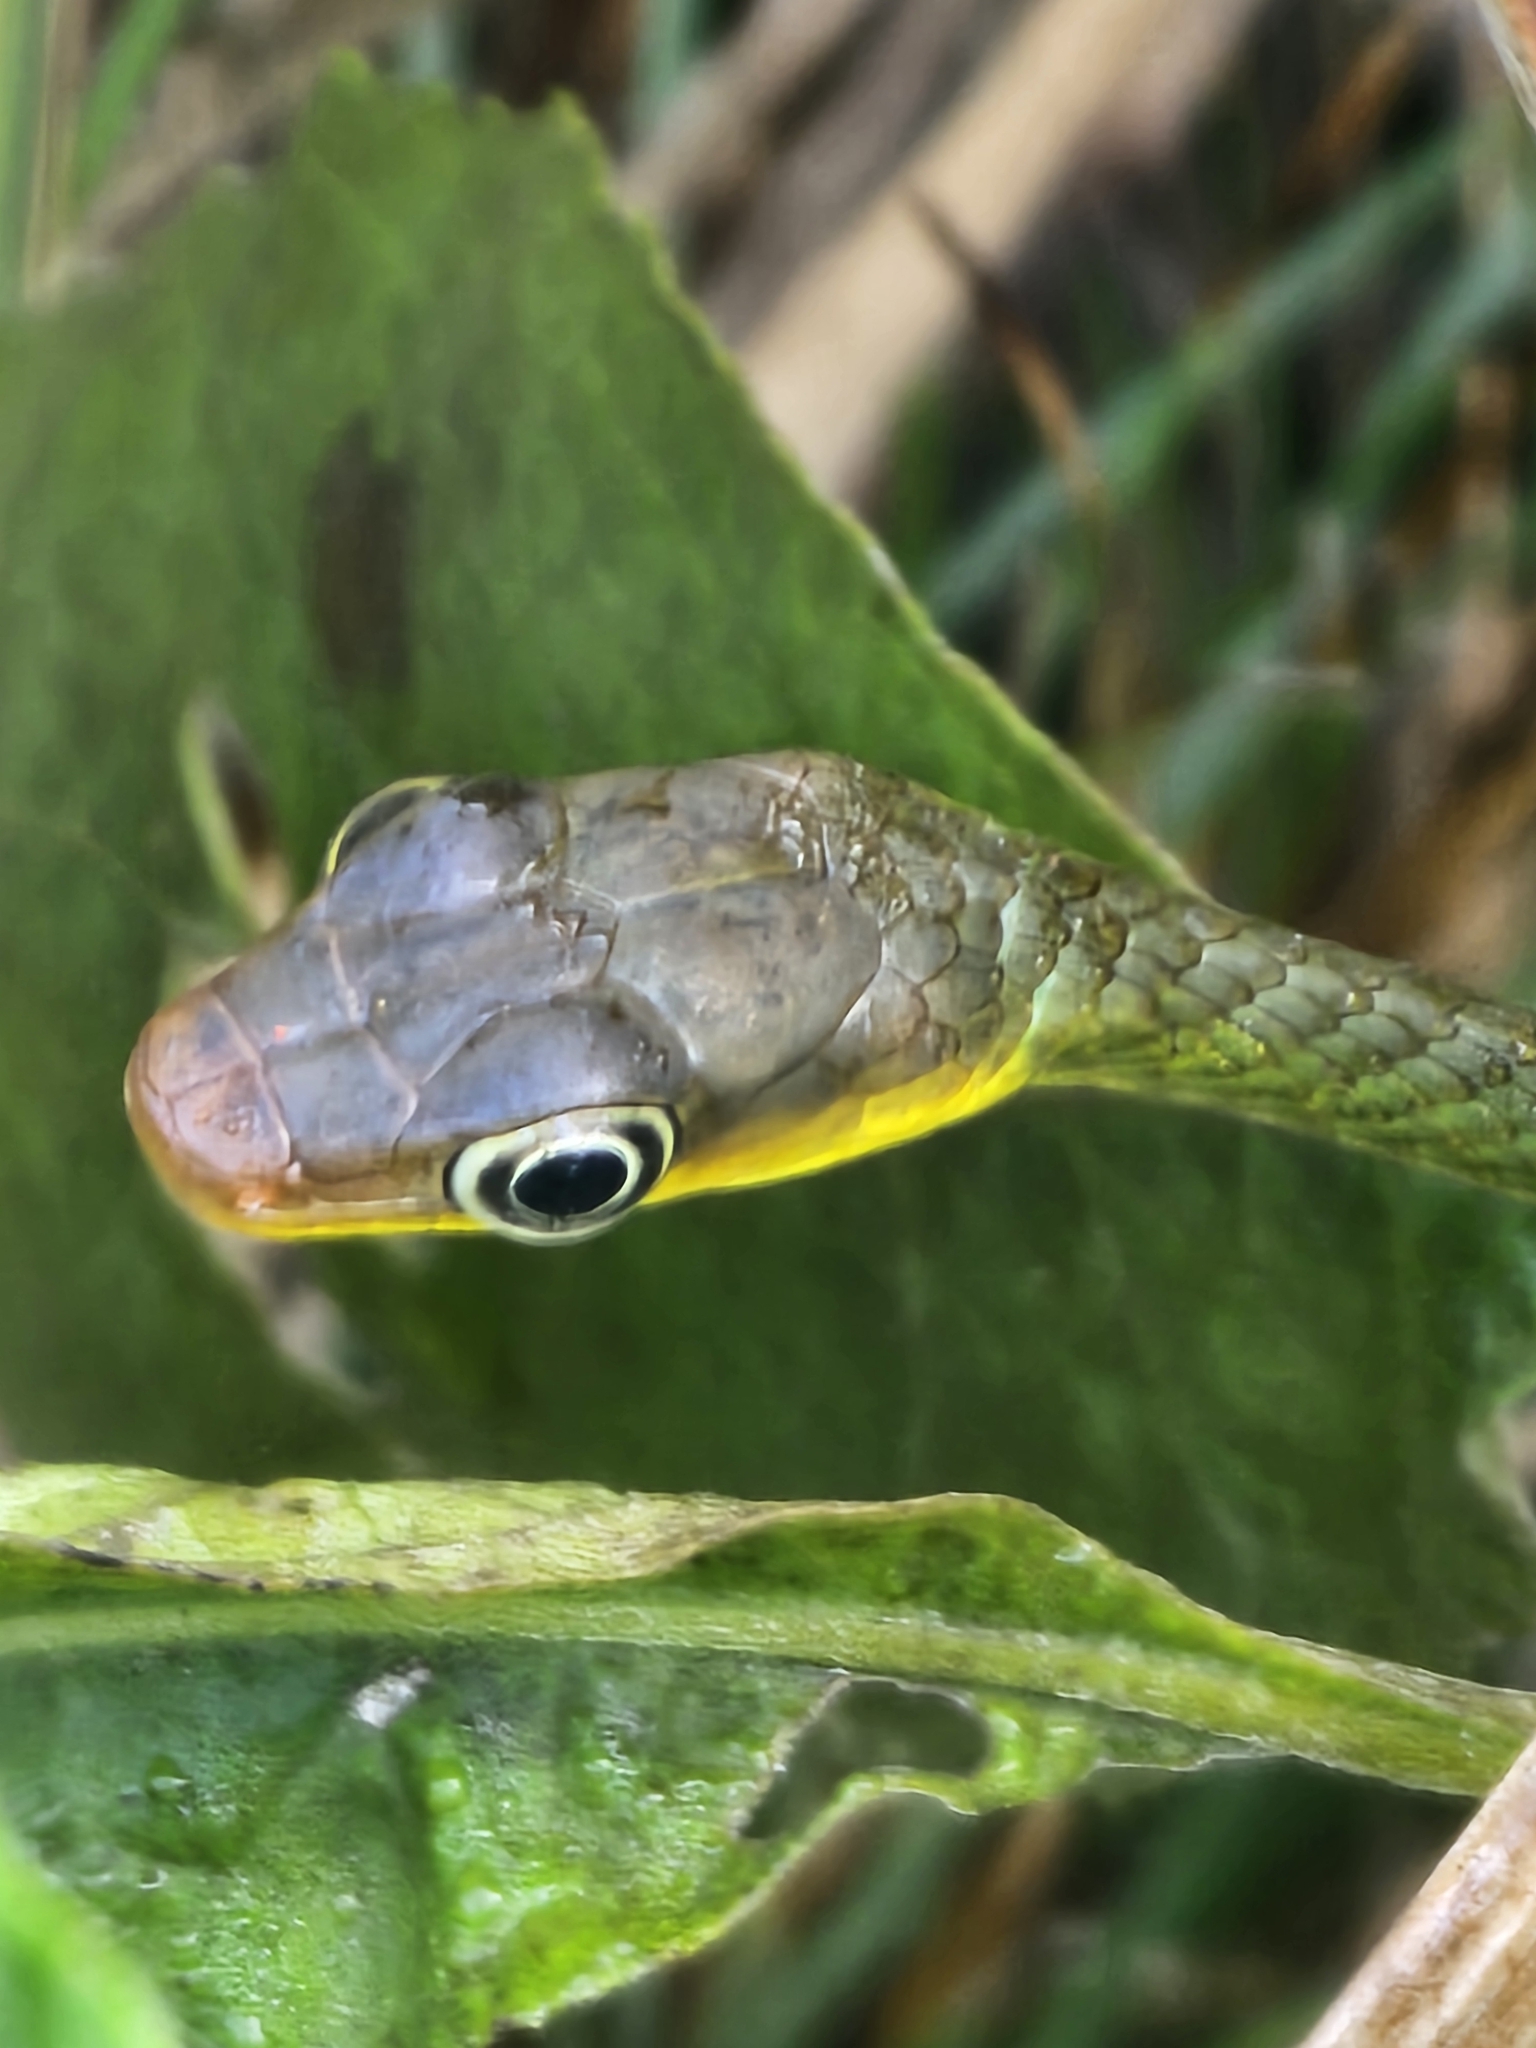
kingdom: Animalia
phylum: Chordata
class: Squamata
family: Colubridae
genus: Chironius
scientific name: Chironius exoletus
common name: Linnaeus' sipo
